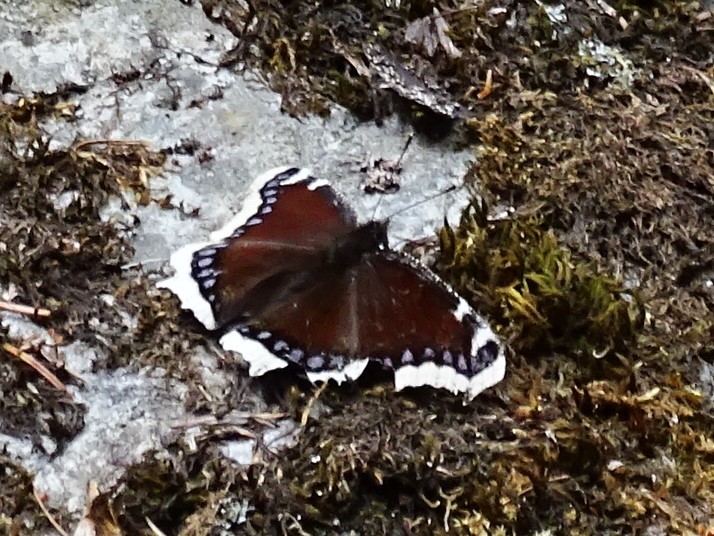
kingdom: Animalia
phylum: Arthropoda
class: Insecta
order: Lepidoptera
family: Nymphalidae
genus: Nymphalis
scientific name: Nymphalis antiopa
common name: Camberwell beauty
